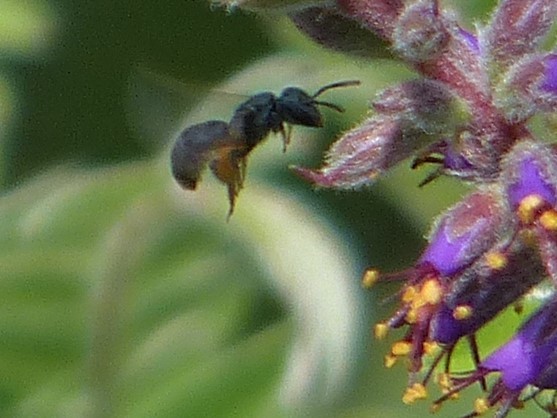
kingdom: Animalia
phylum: Arthropoda
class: Insecta
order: Hymenoptera
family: Halictidae
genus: Dialictus
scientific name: Dialictus
